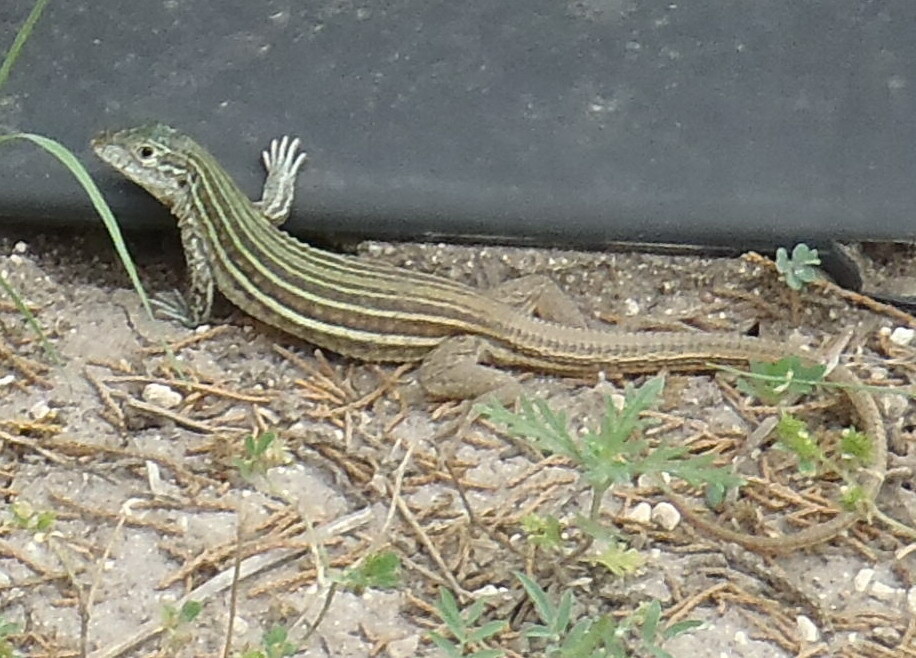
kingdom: Animalia
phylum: Chordata
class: Squamata
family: Teiidae
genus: Aspidoscelis
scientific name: Aspidoscelis gularis
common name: Eastern spotted whiptail
